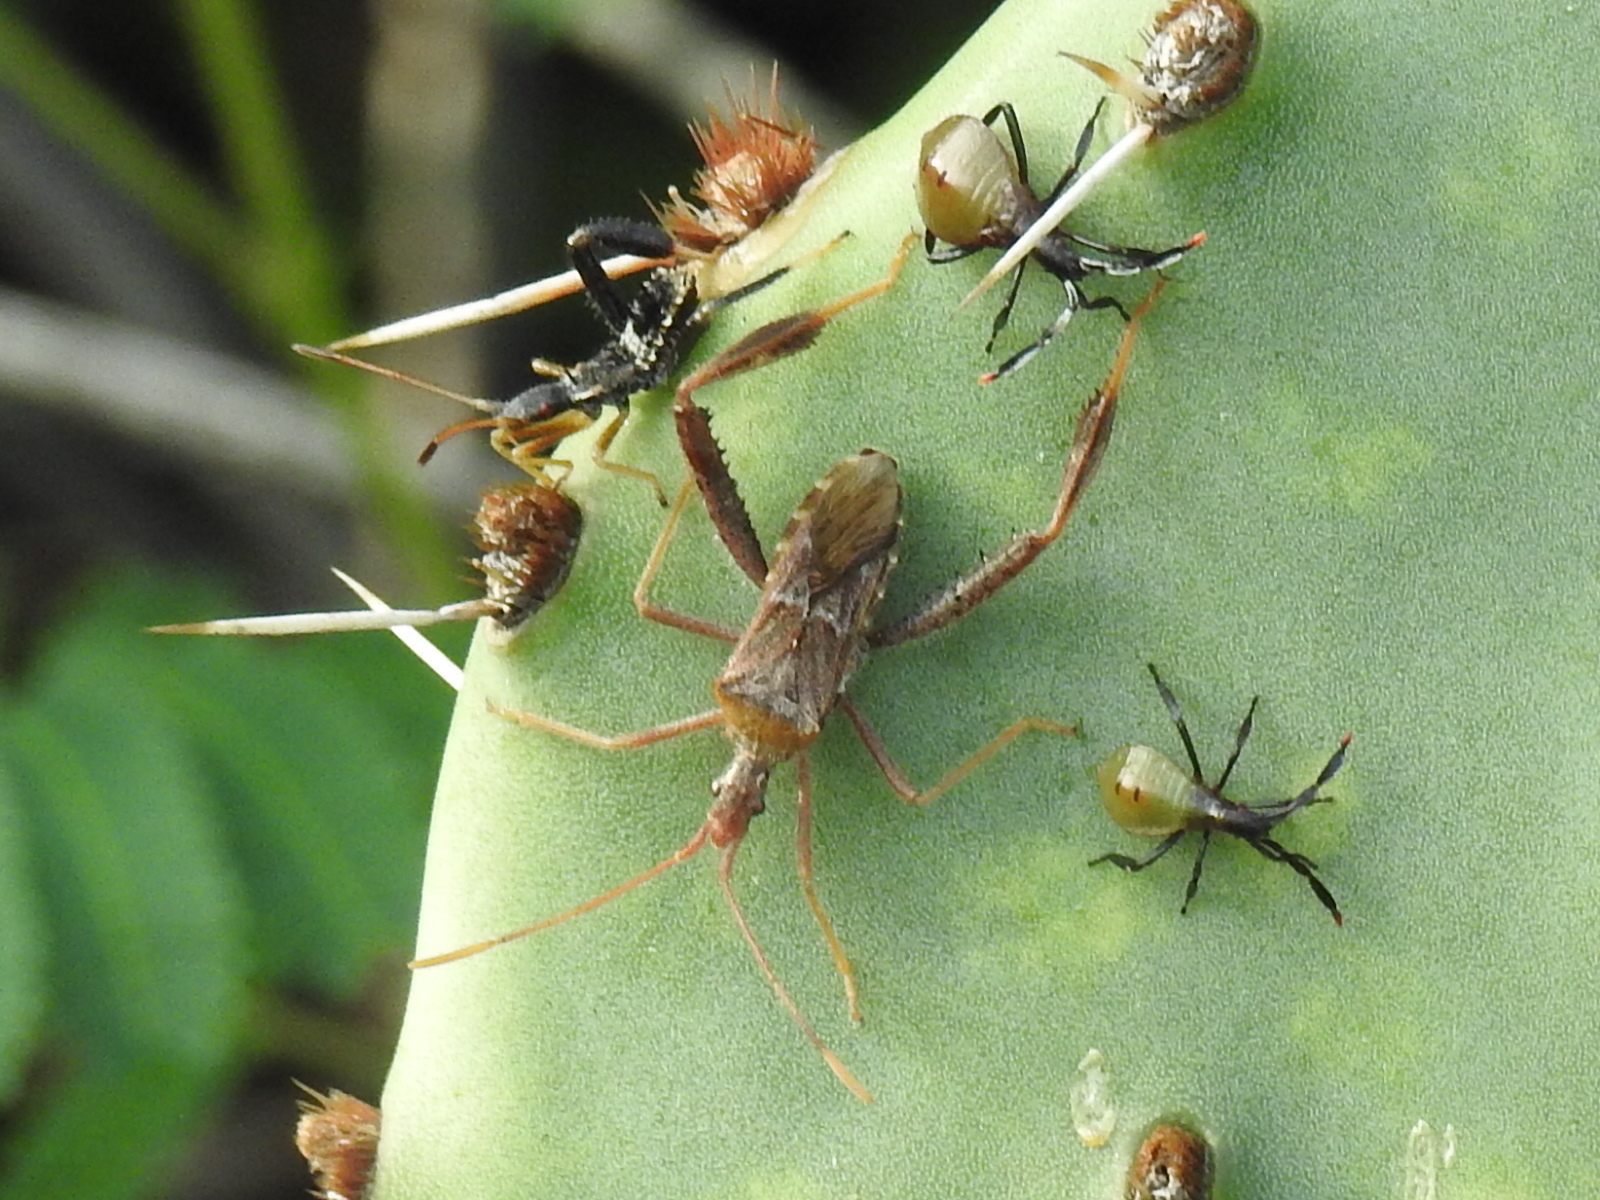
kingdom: Animalia
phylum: Arthropoda
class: Insecta
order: Hemiptera
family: Coreidae
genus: Narnia
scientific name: Narnia femorata
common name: Leaf-footed cactus bug
